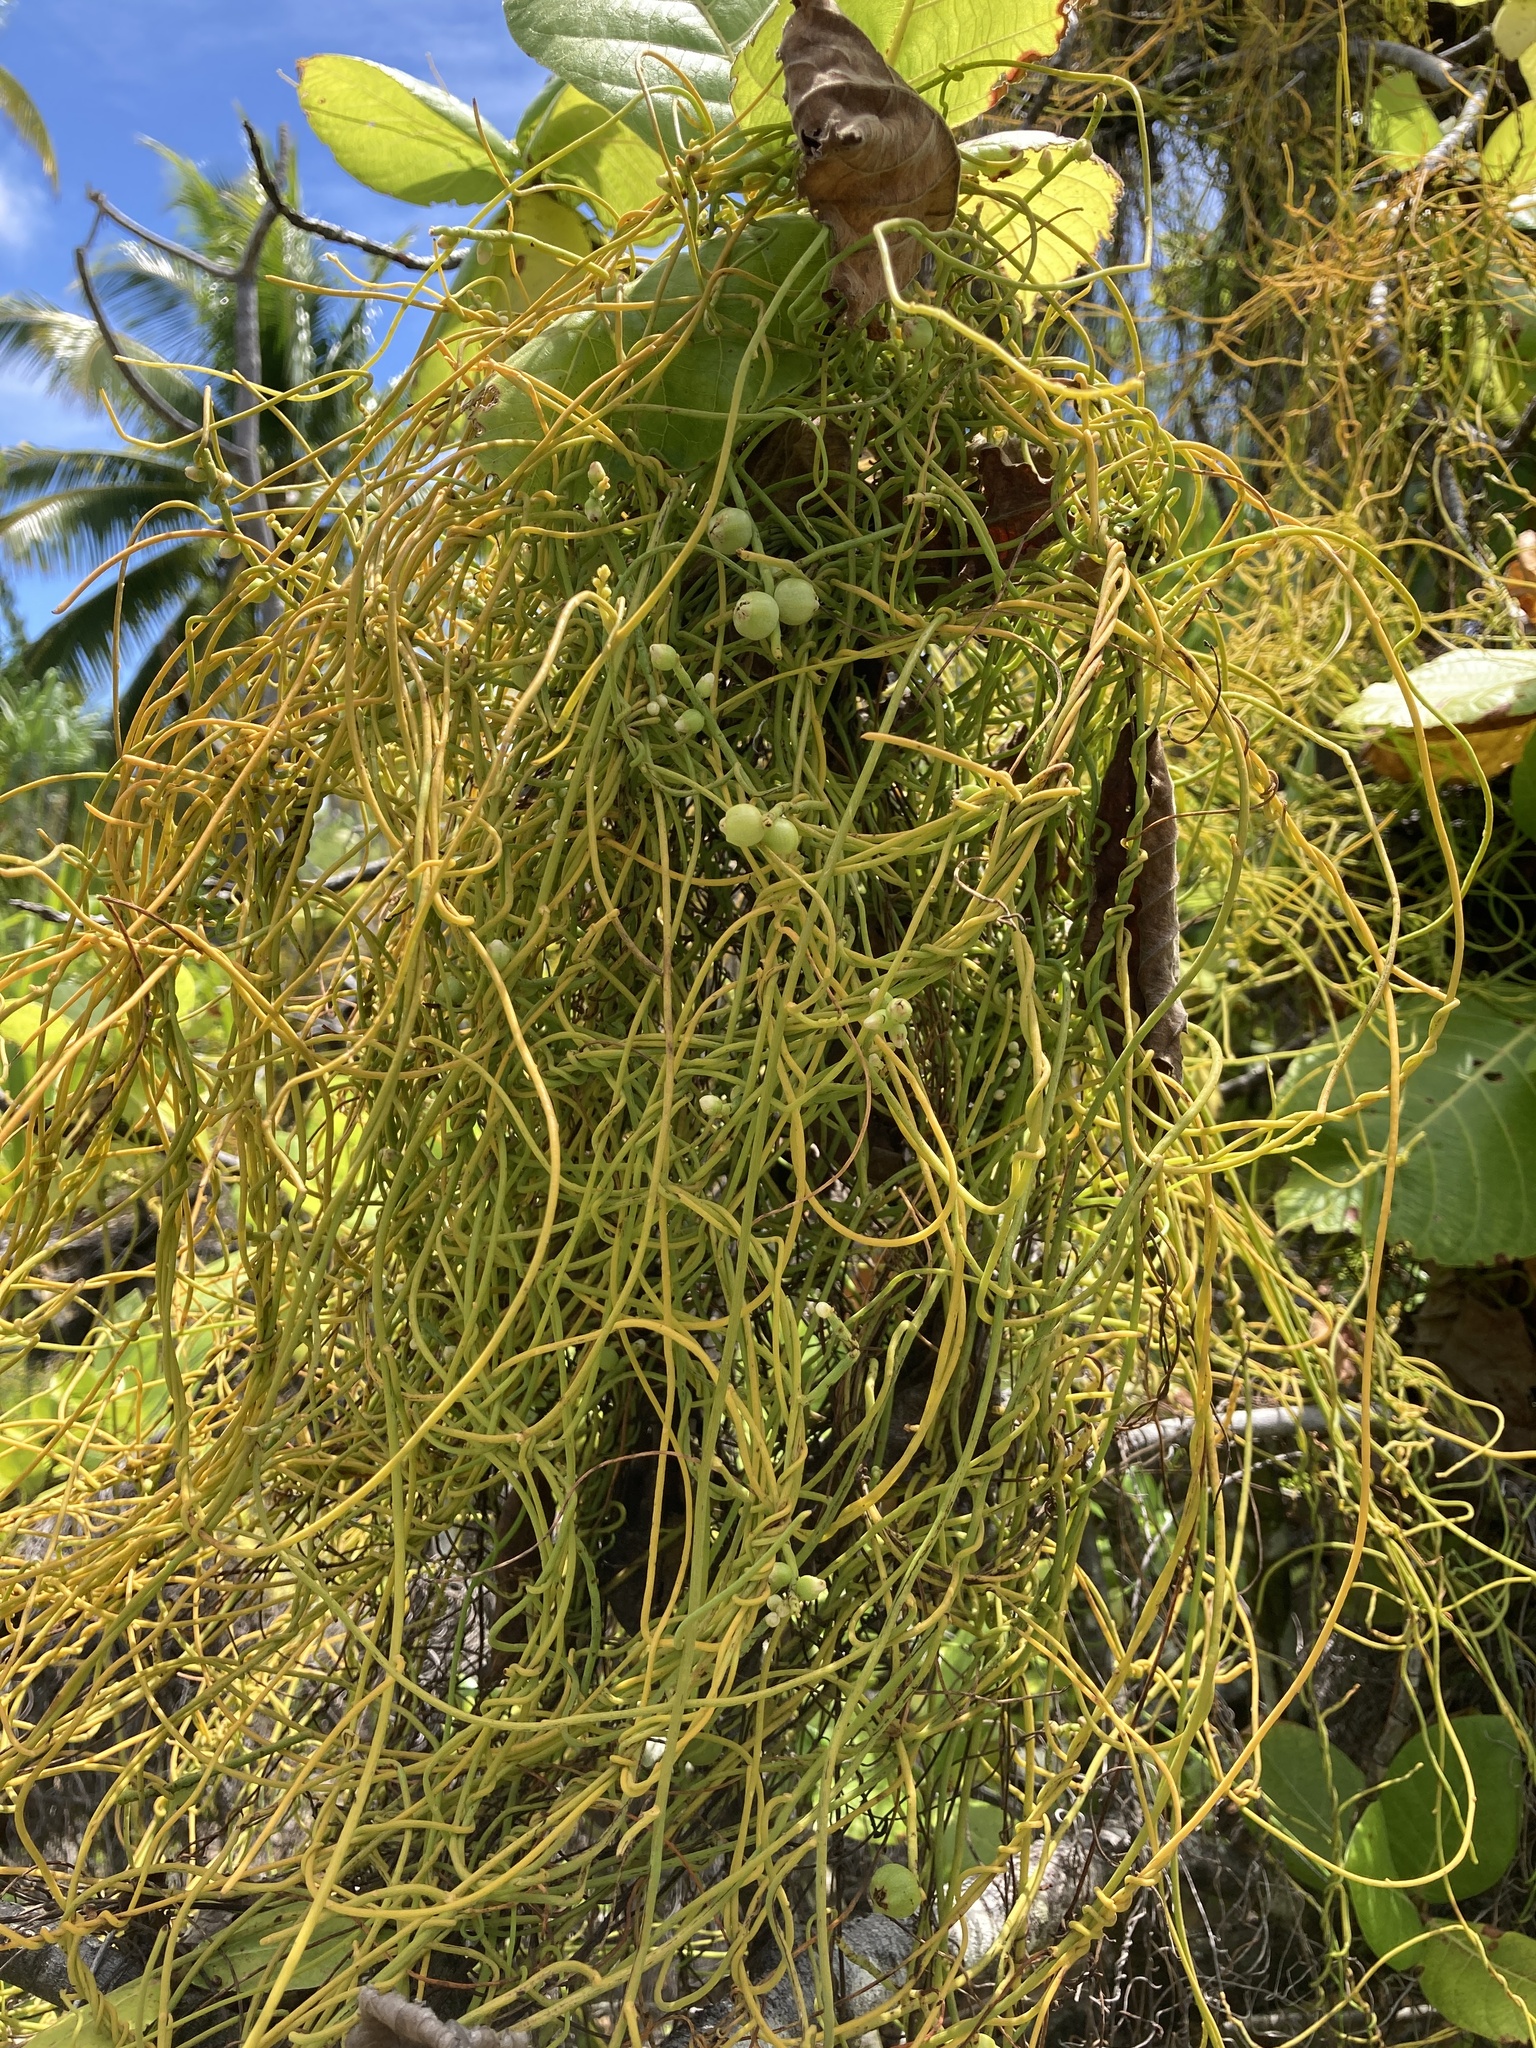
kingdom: Plantae
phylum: Tracheophyta
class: Magnoliopsida
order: Laurales
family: Lauraceae
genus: Cassytha
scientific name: Cassytha filiformis
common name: Dodder-laurel
